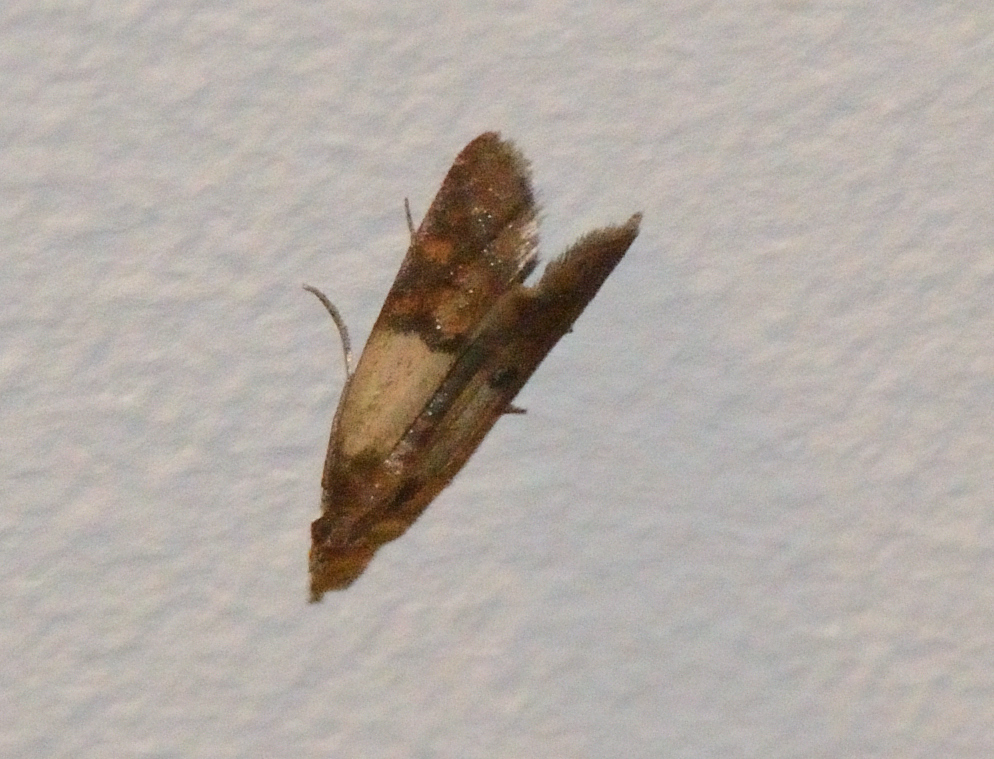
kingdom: Animalia
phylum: Arthropoda
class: Insecta
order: Lepidoptera
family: Pyralidae
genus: Plodia
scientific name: Plodia interpunctella
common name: Indian meal moth
